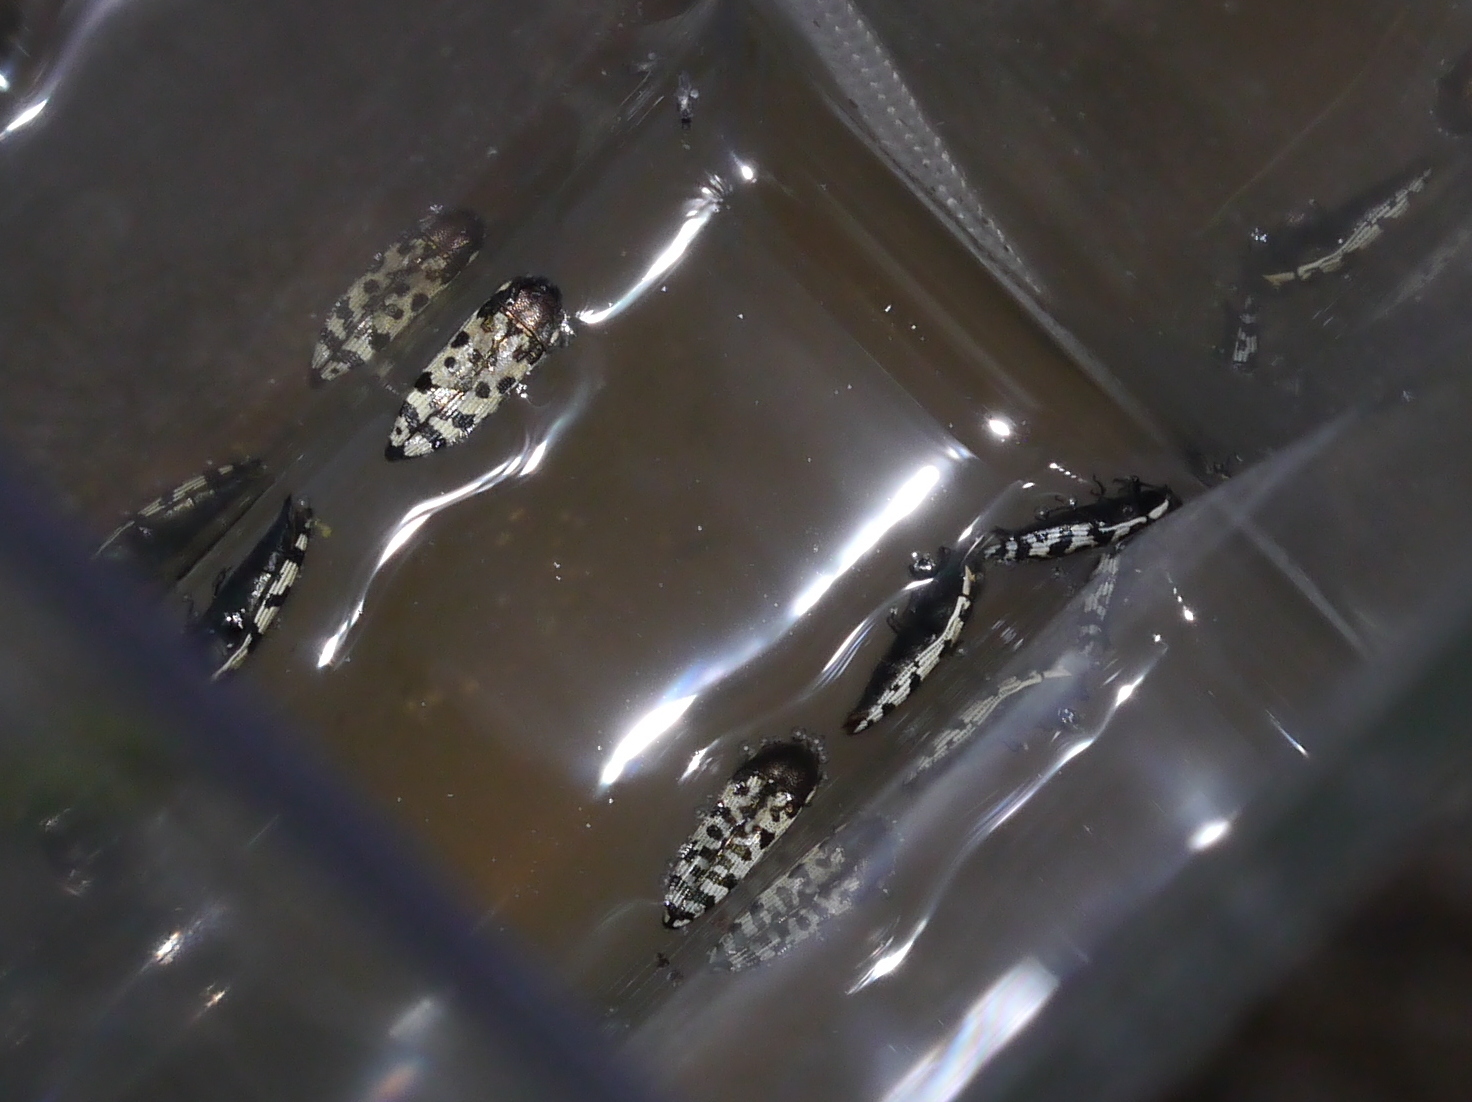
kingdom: Animalia
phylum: Arthropoda
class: Insecta
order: Coleoptera
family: Buprestidae
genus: Acmaeodera
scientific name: Acmaeodera decipiens
